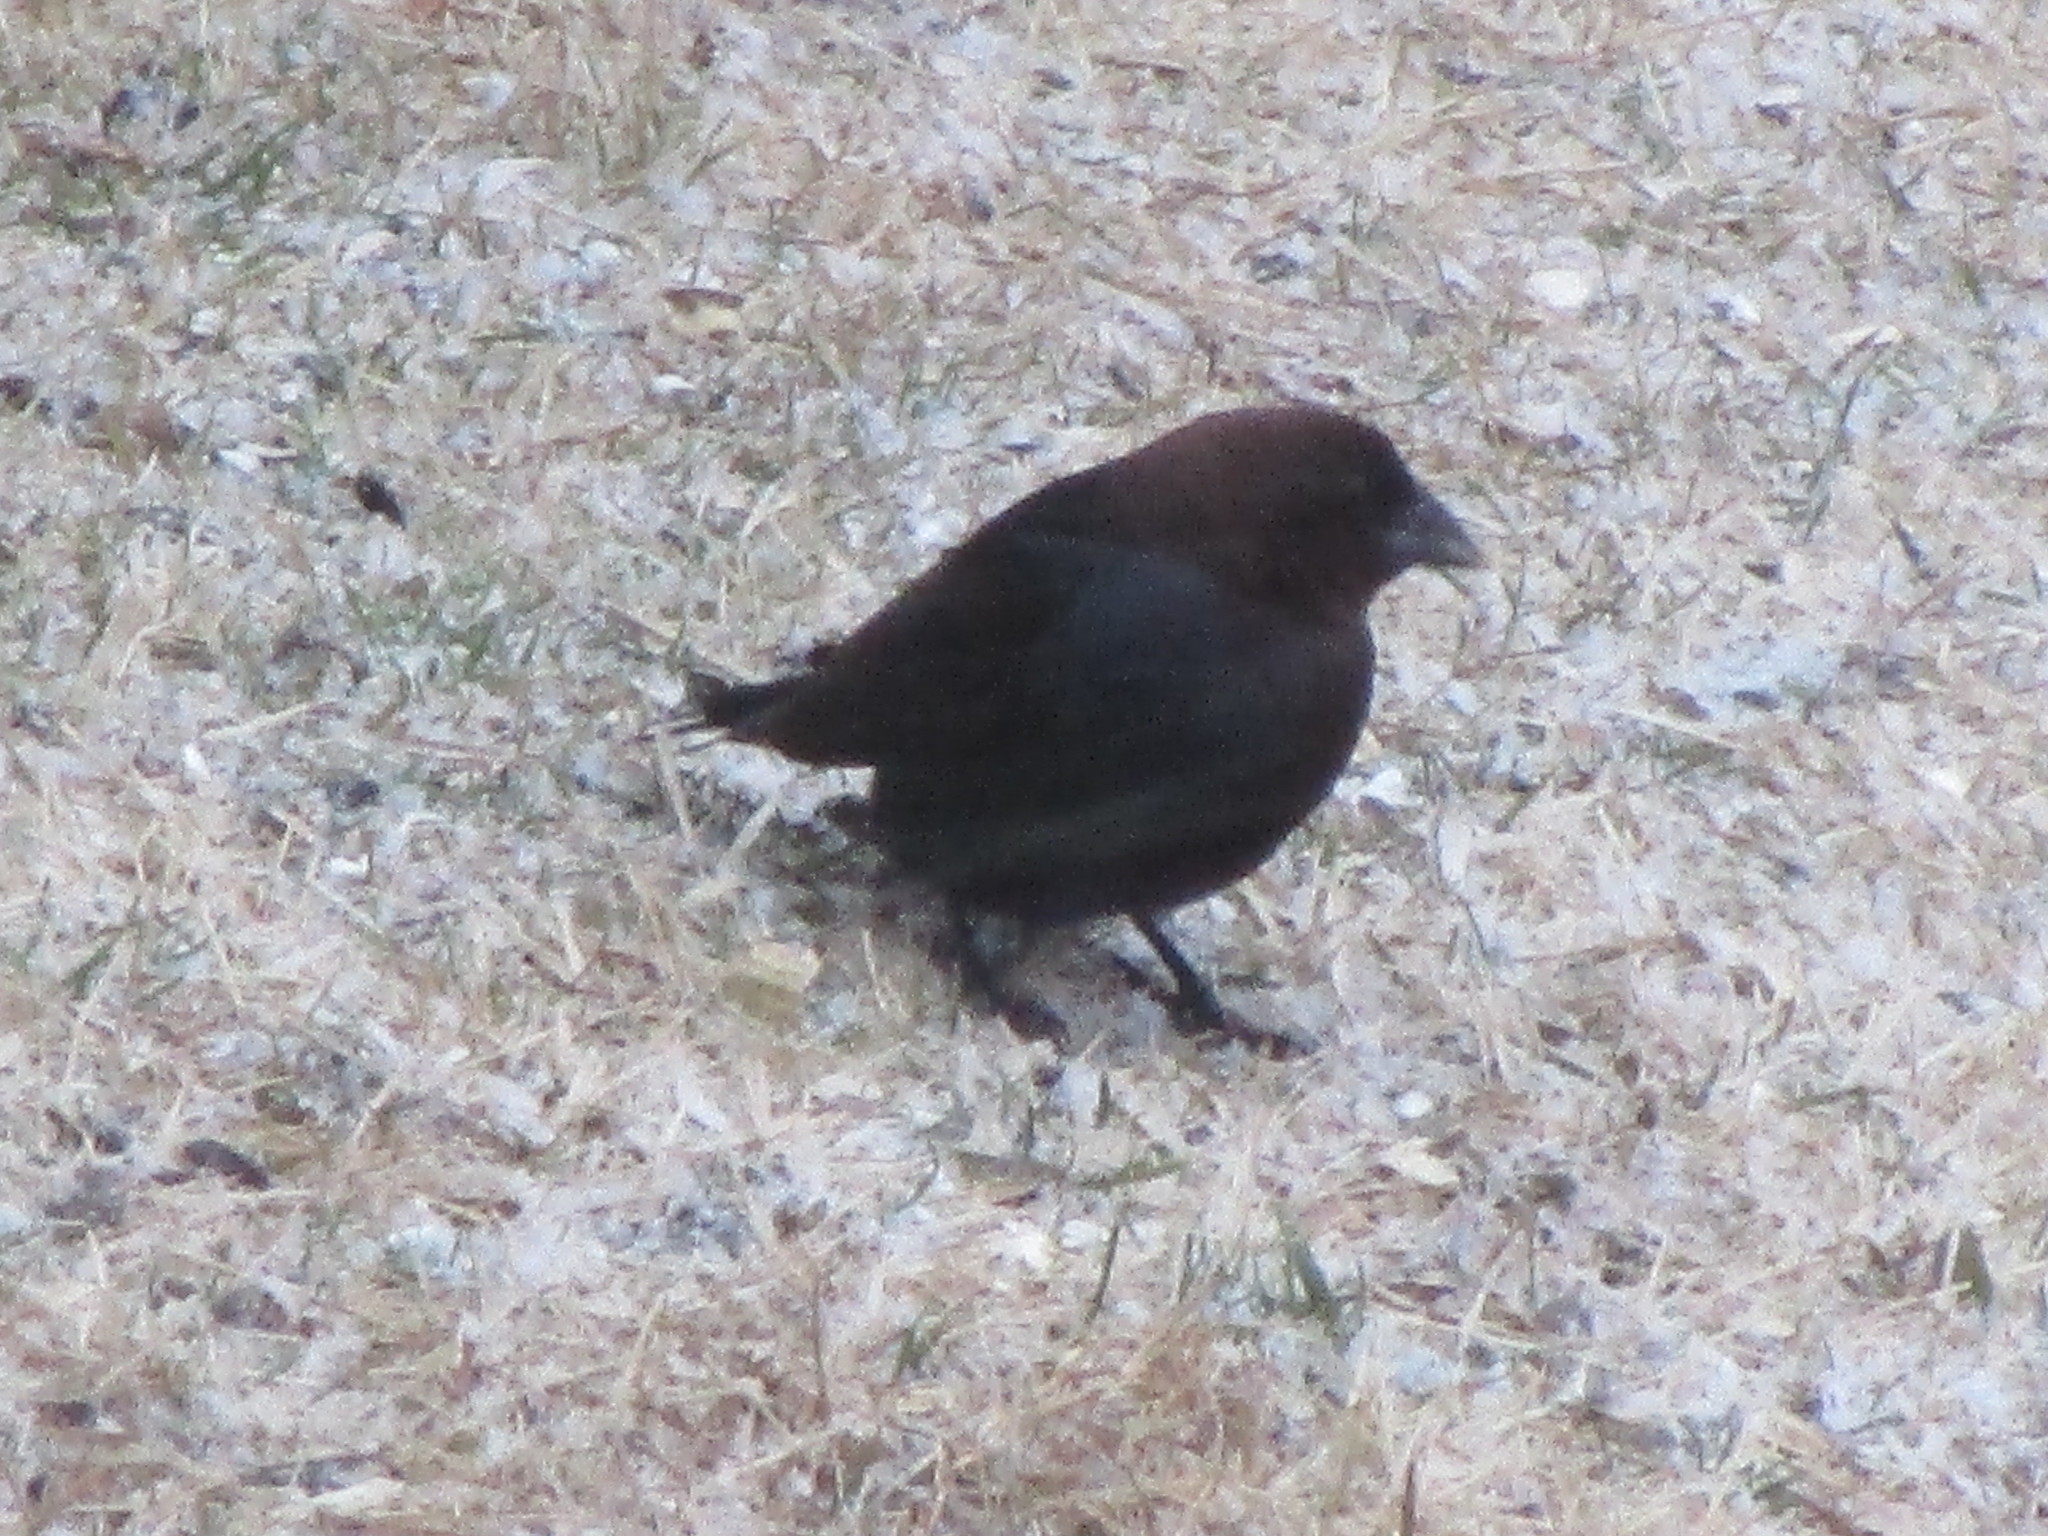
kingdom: Animalia
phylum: Chordata
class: Aves
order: Passeriformes
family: Icteridae
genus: Molothrus
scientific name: Molothrus ater
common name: Brown-headed cowbird
